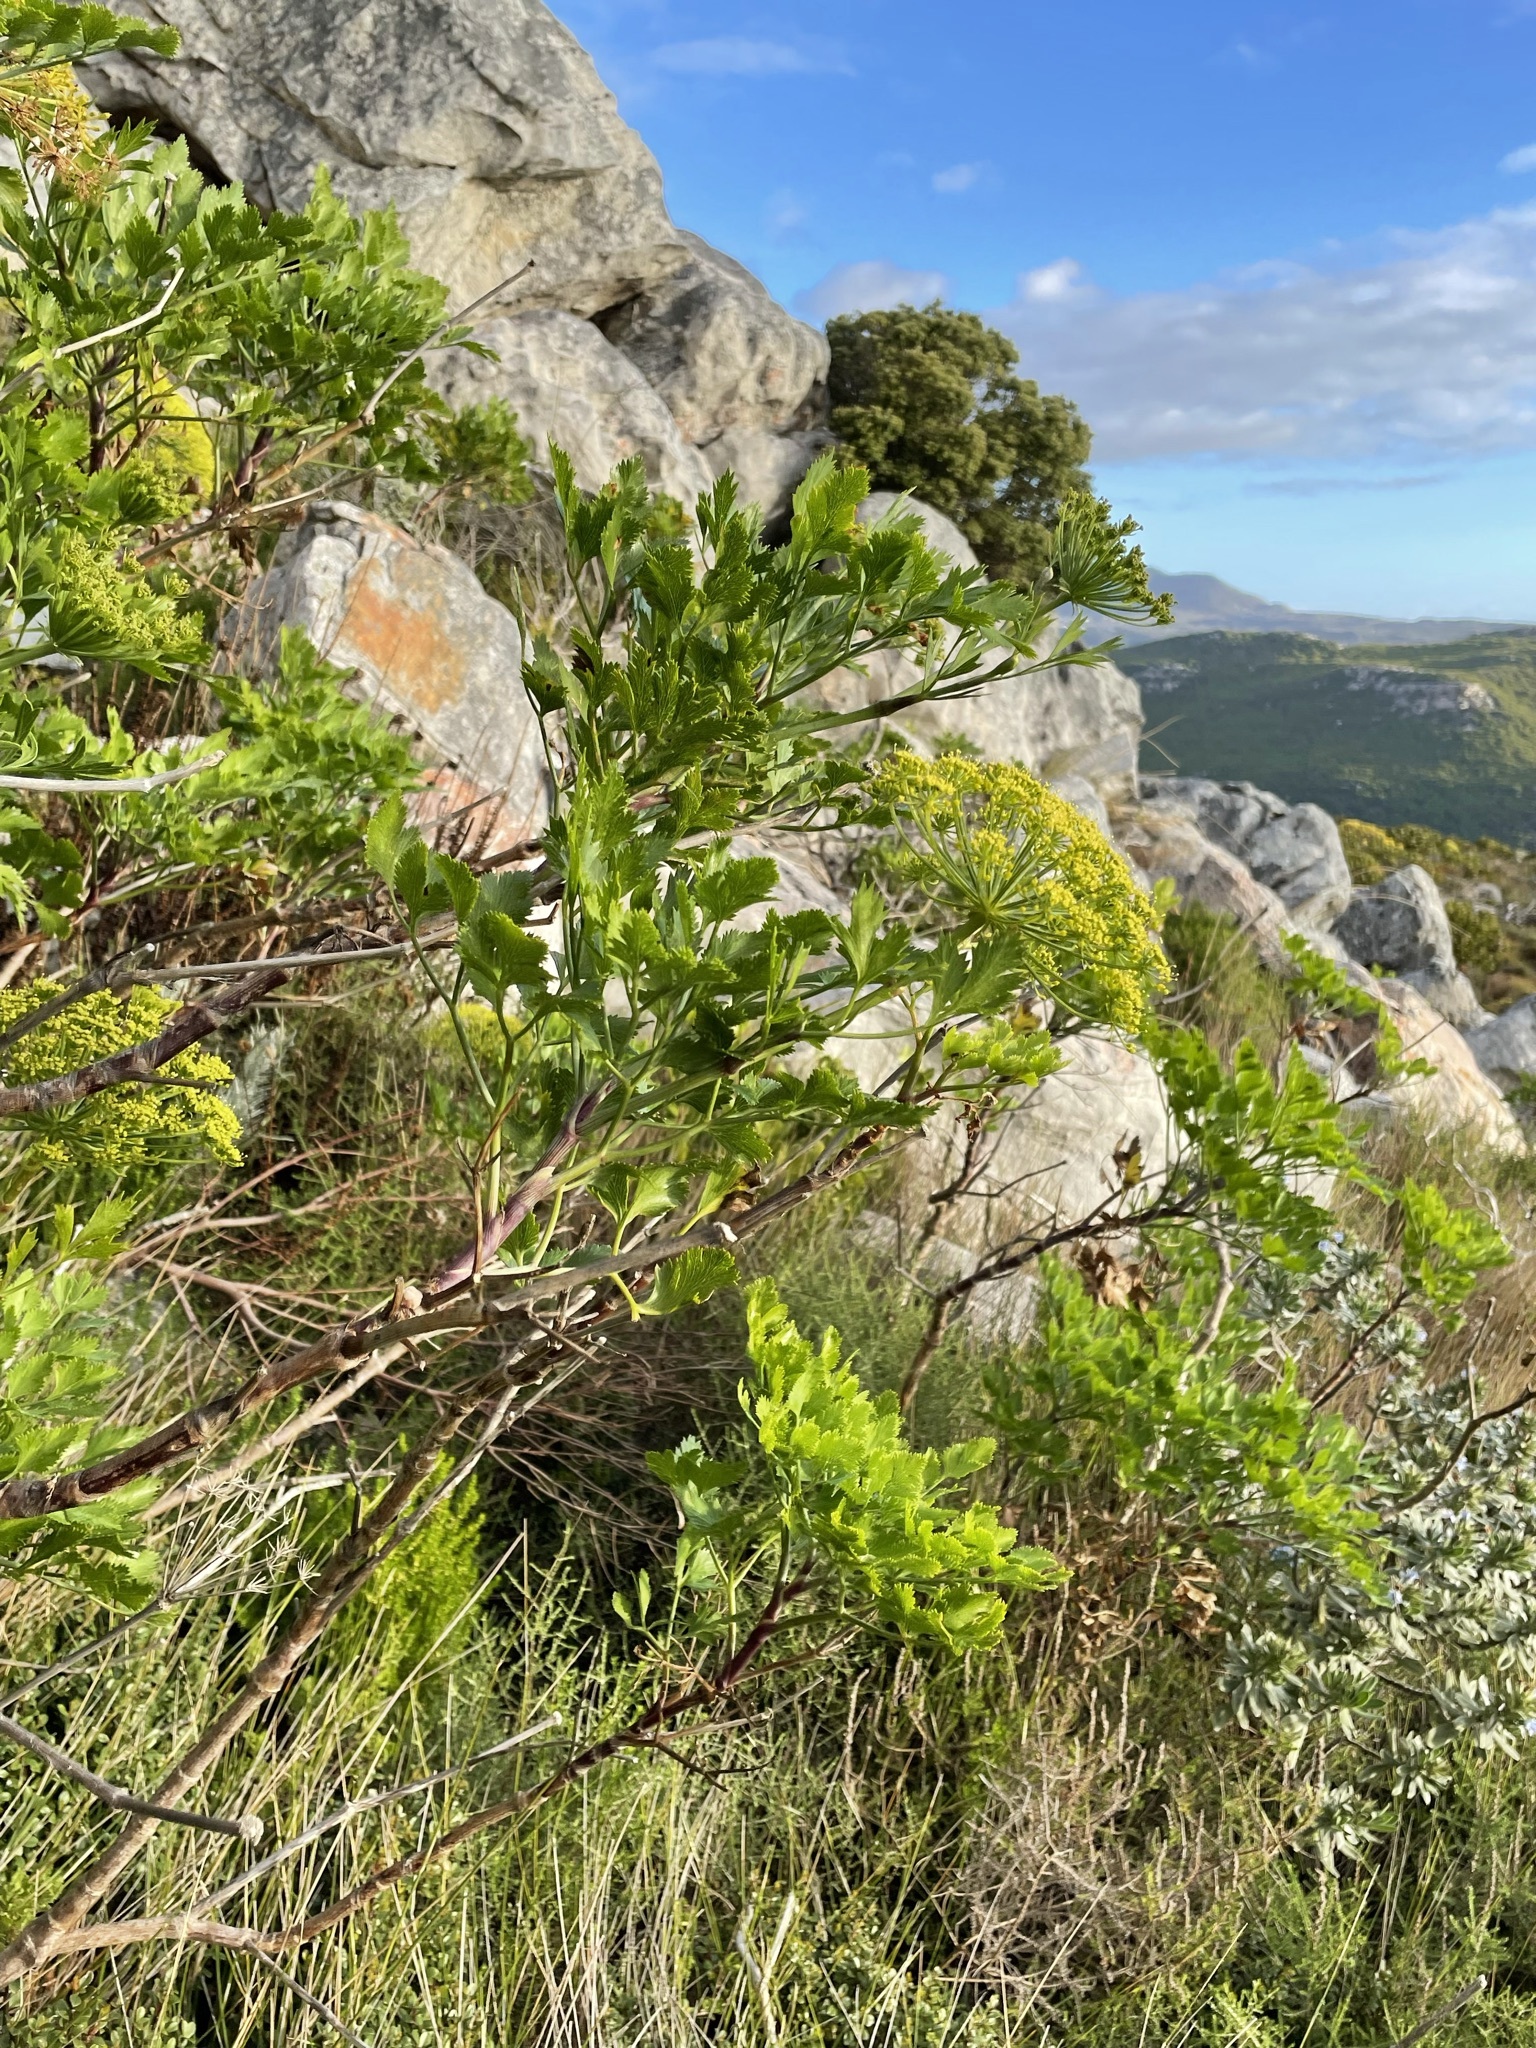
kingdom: Plantae
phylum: Tracheophyta
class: Magnoliopsida
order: Apiales
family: Apiaceae
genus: Notobubon
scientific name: Notobubon galbanum
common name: Blisterbush
